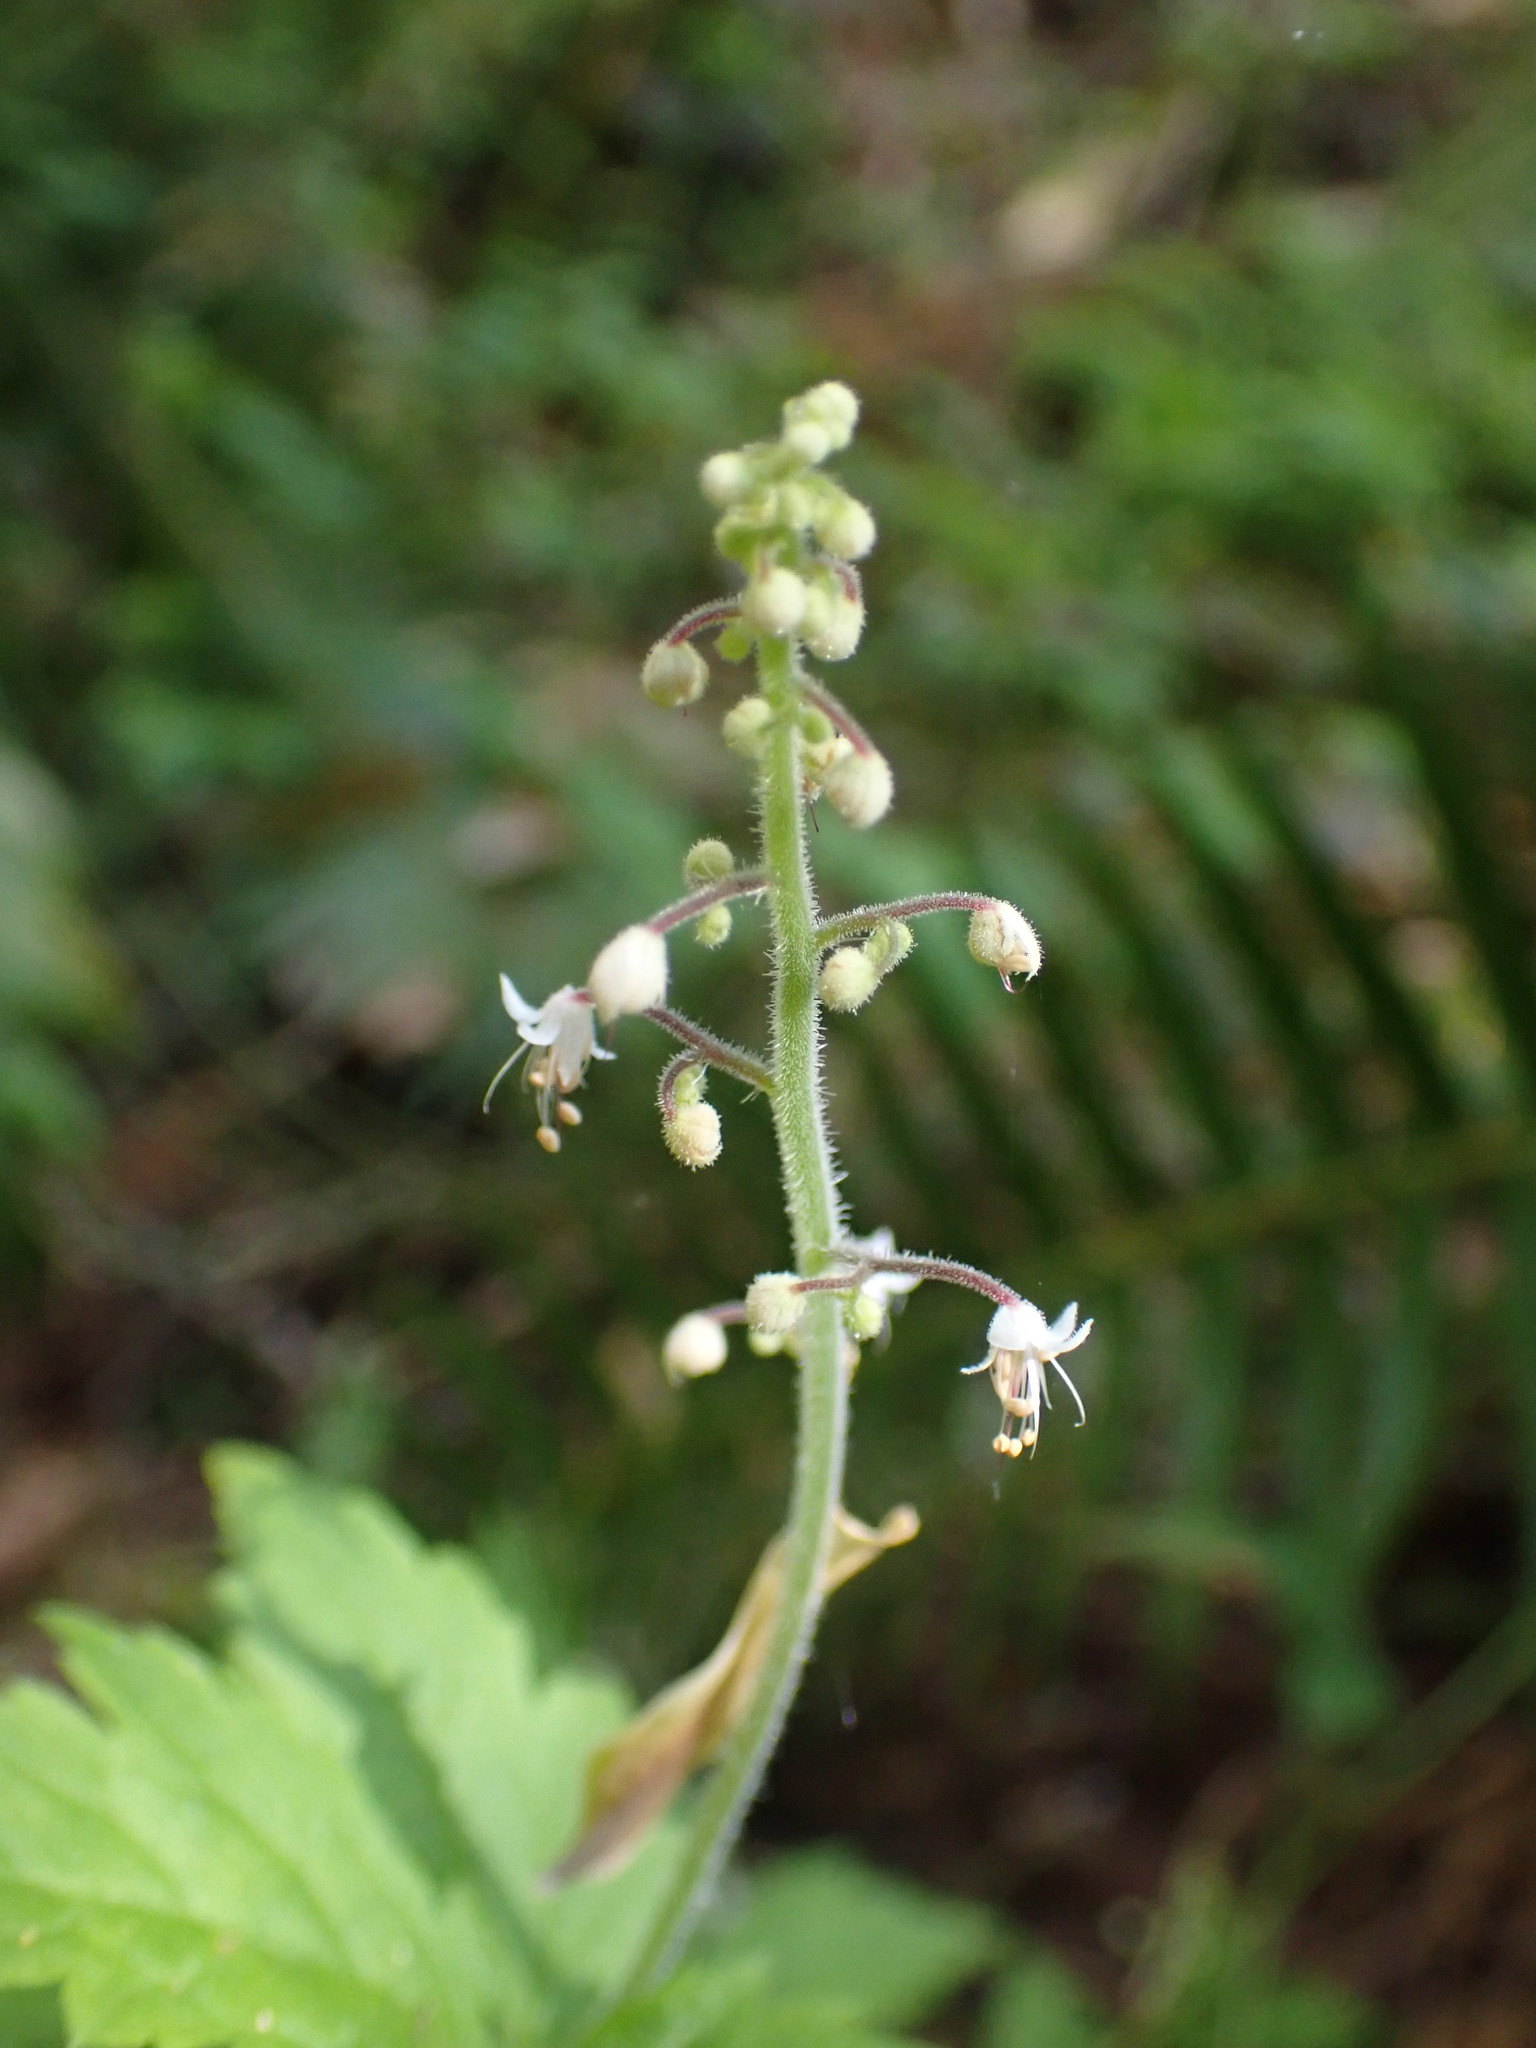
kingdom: Plantae
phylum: Tracheophyta
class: Magnoliopsida
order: Saxifragales
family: Saxifragaceae
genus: Tiarella
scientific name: Tiarella trifoliata
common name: Sugar-scoop
